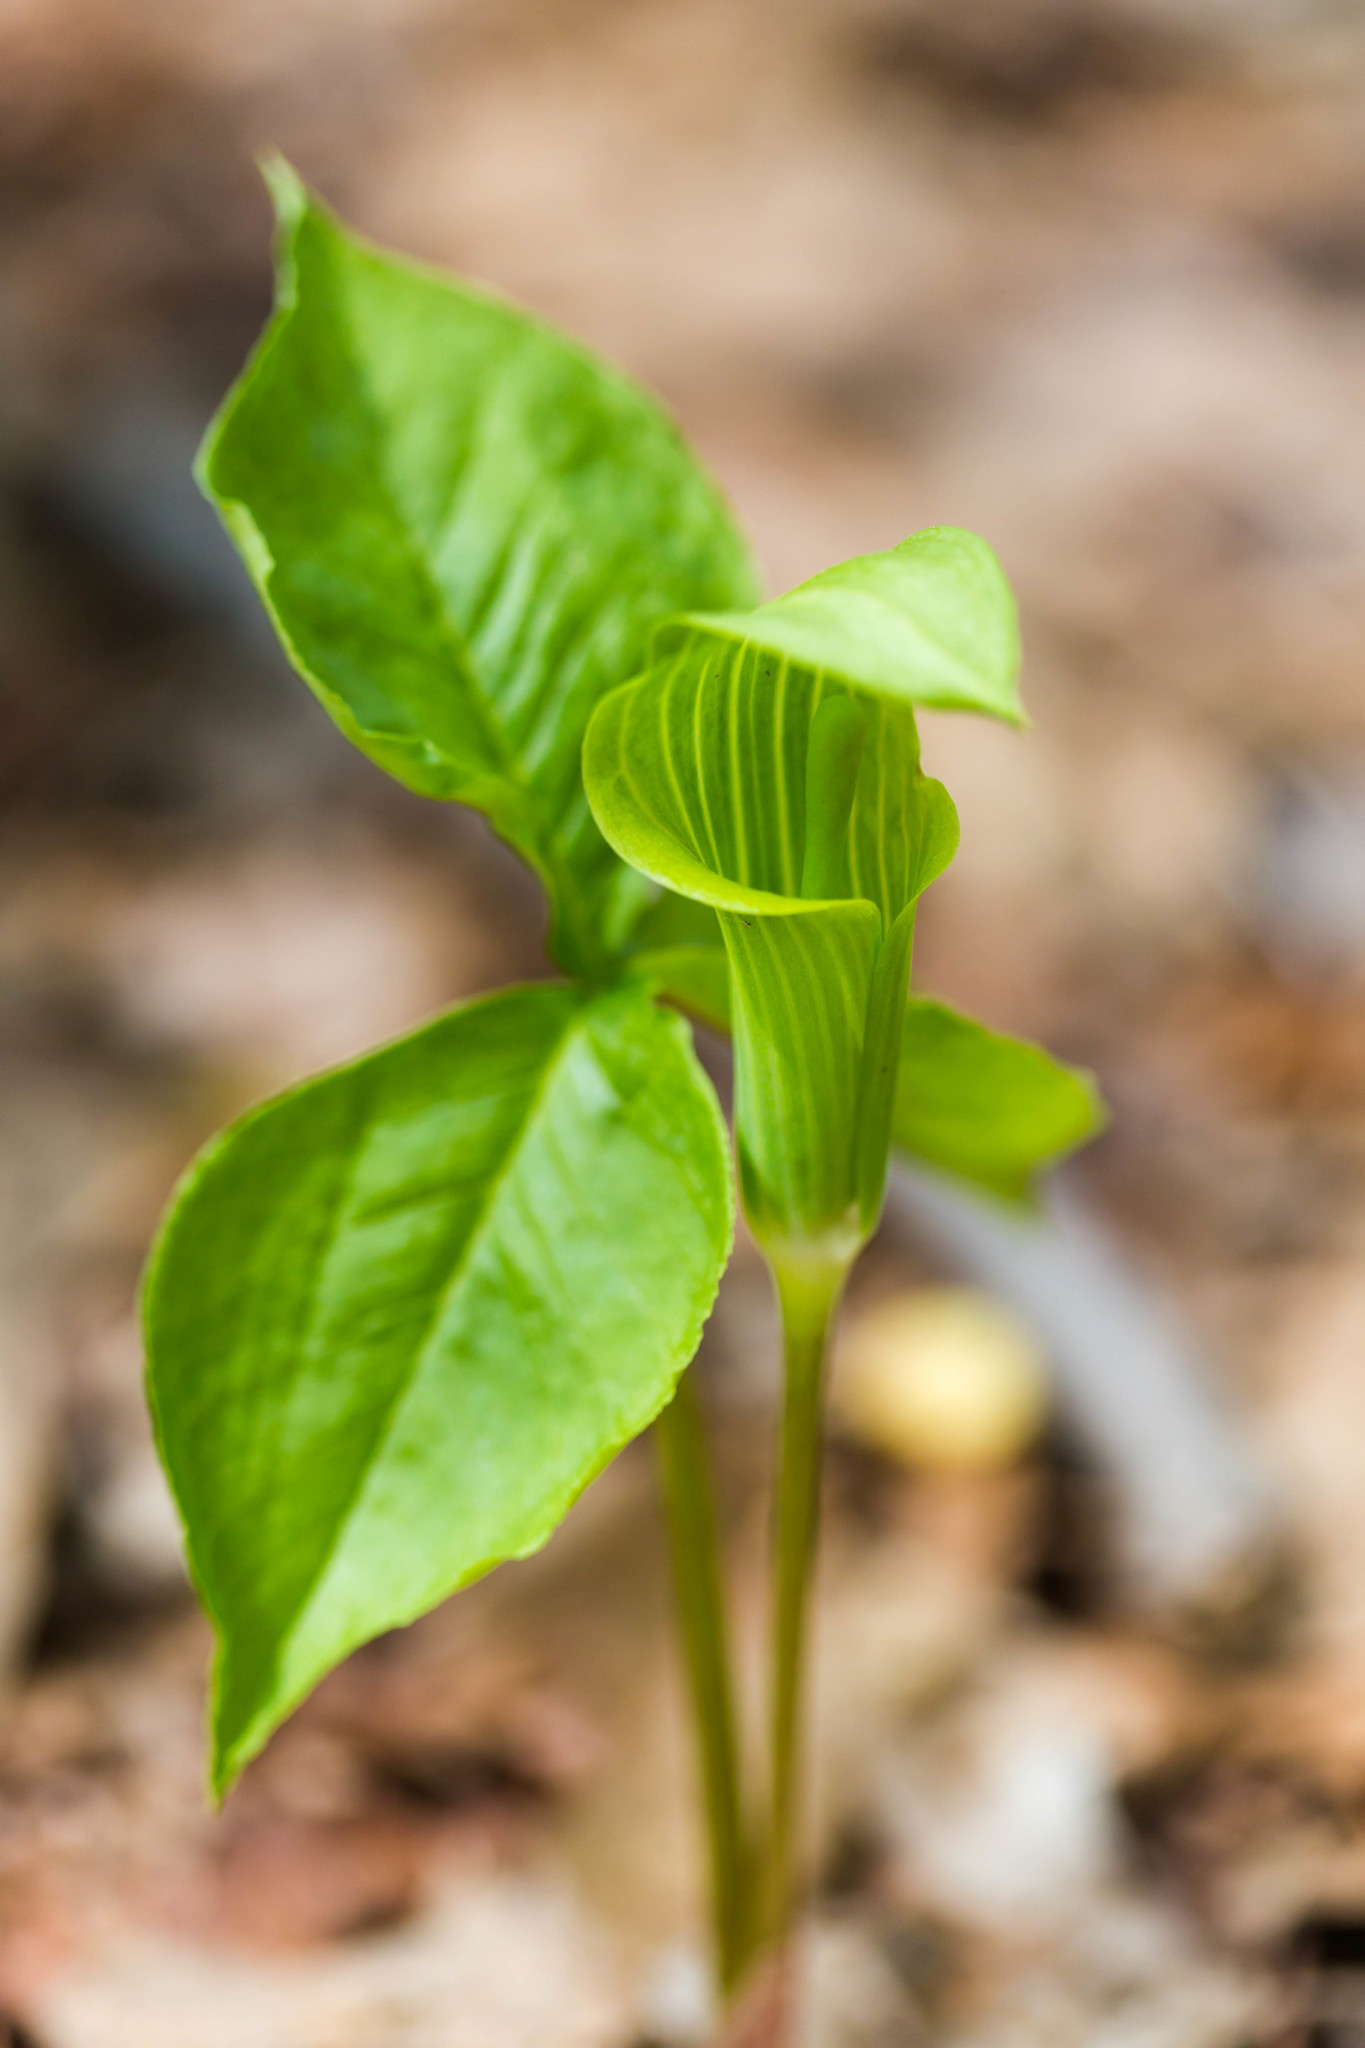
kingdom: Plantae
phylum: Tracheophyta
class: Liliopsida
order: Alismatales
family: Araceae
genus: Arisaema
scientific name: Arisaema triphyllum
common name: Jack-in-the-pulpit
